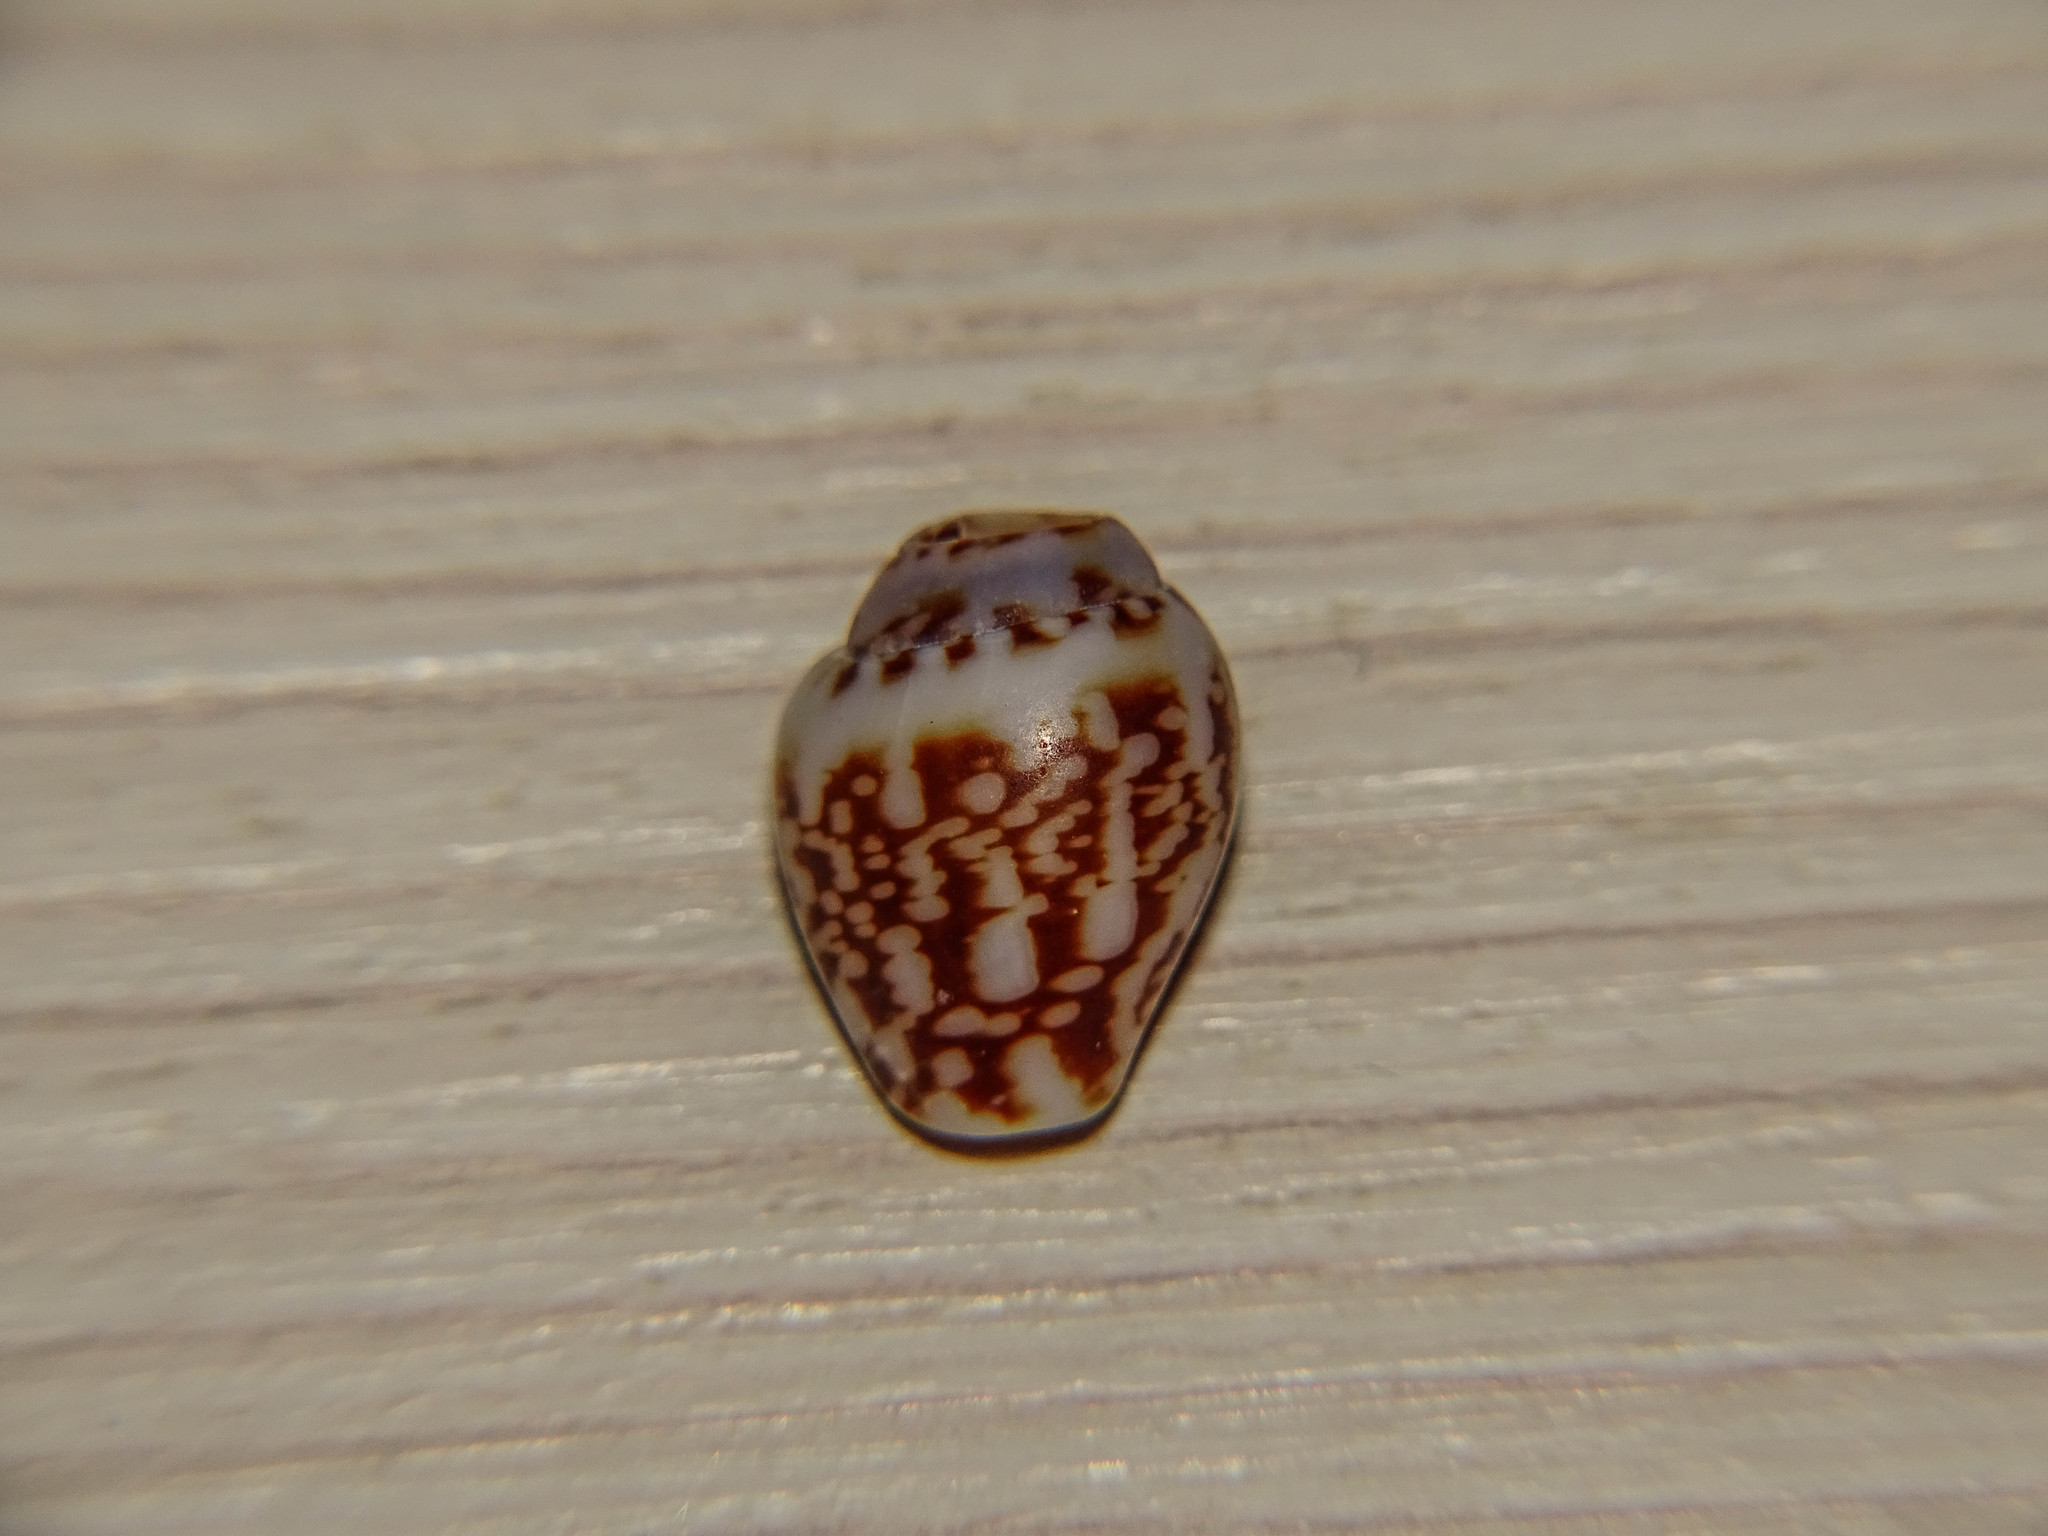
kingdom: Animalia
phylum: Mollusca
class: Gastropoda
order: Neogastropoda
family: Columbellidae
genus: Columbella
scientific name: Columbella rustica
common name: Rustic dove shell
